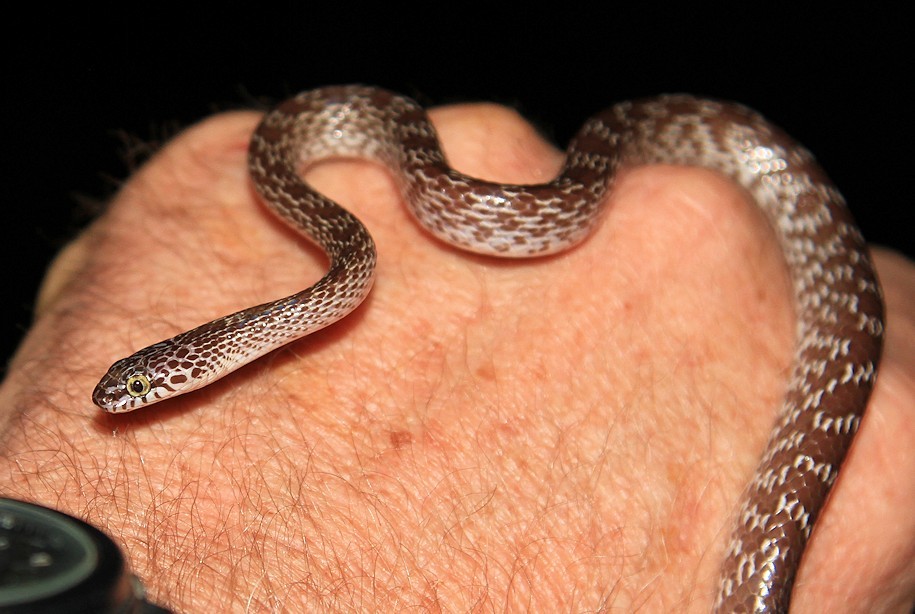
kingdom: Animalia
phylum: Chordata
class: Squamata
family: Colubridae
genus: Dipsadoboa
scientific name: Dipsadoboa aulica
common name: Cross-barred snake
